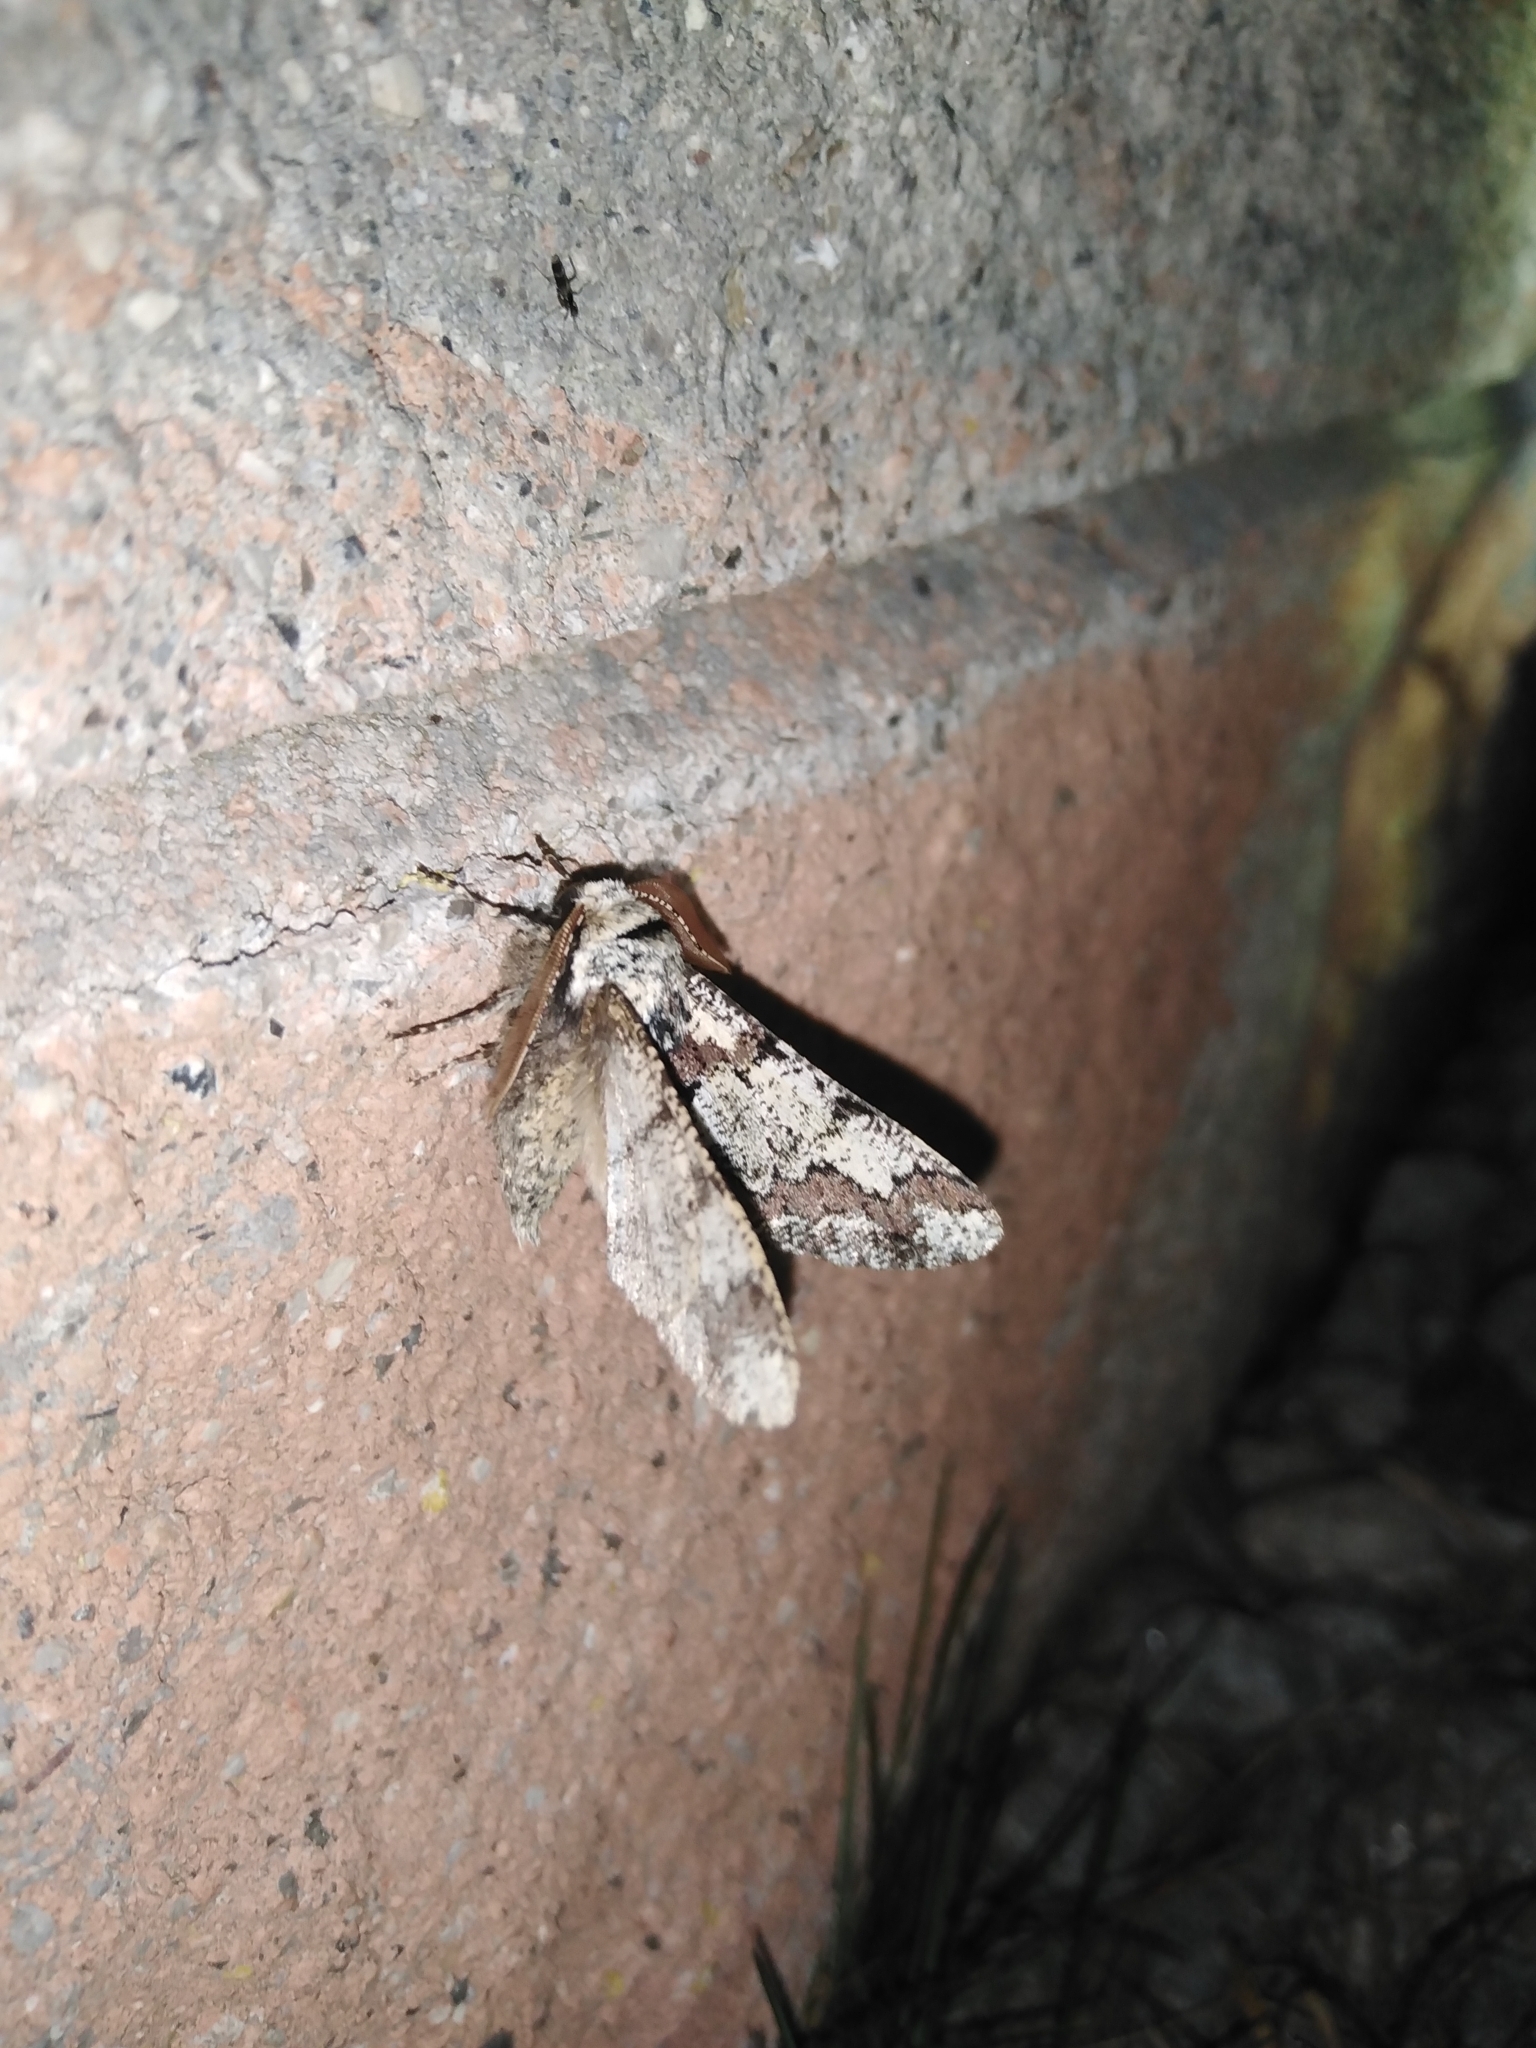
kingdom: Animalia
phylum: Arthropoda
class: Insecta
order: Lepidoptera
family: Geometridae
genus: Biston
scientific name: Biston strataria
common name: Oak beauty
